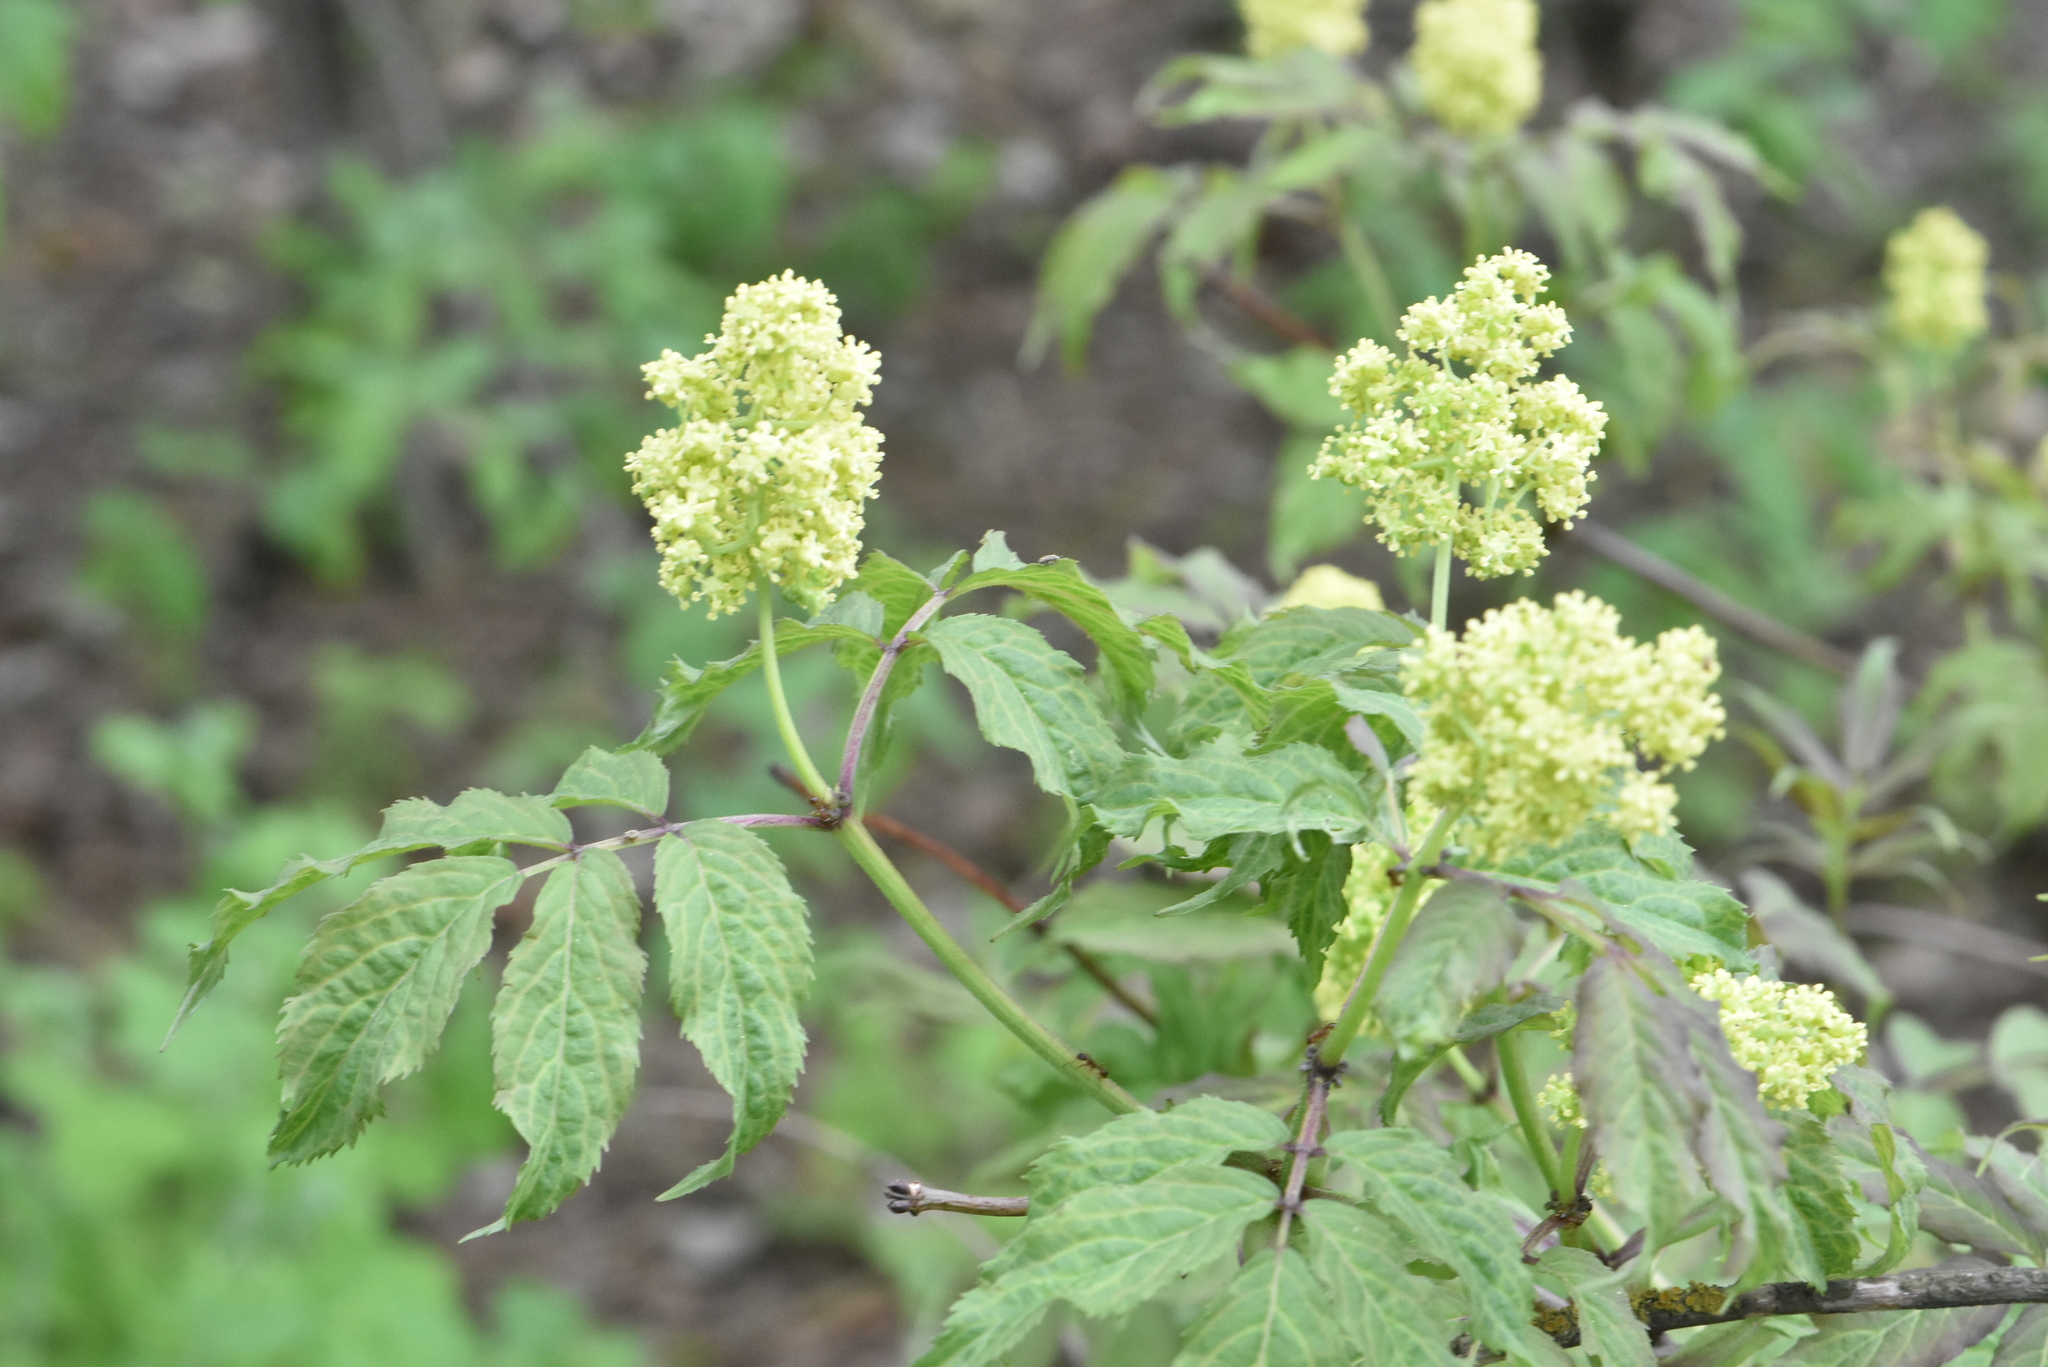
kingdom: Plantae
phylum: Tracheophyta
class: Magnoliopsida
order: Dipsacales
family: Viburnaceae
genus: Sambucus
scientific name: Sambucus racemosa
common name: Red-berried elder
